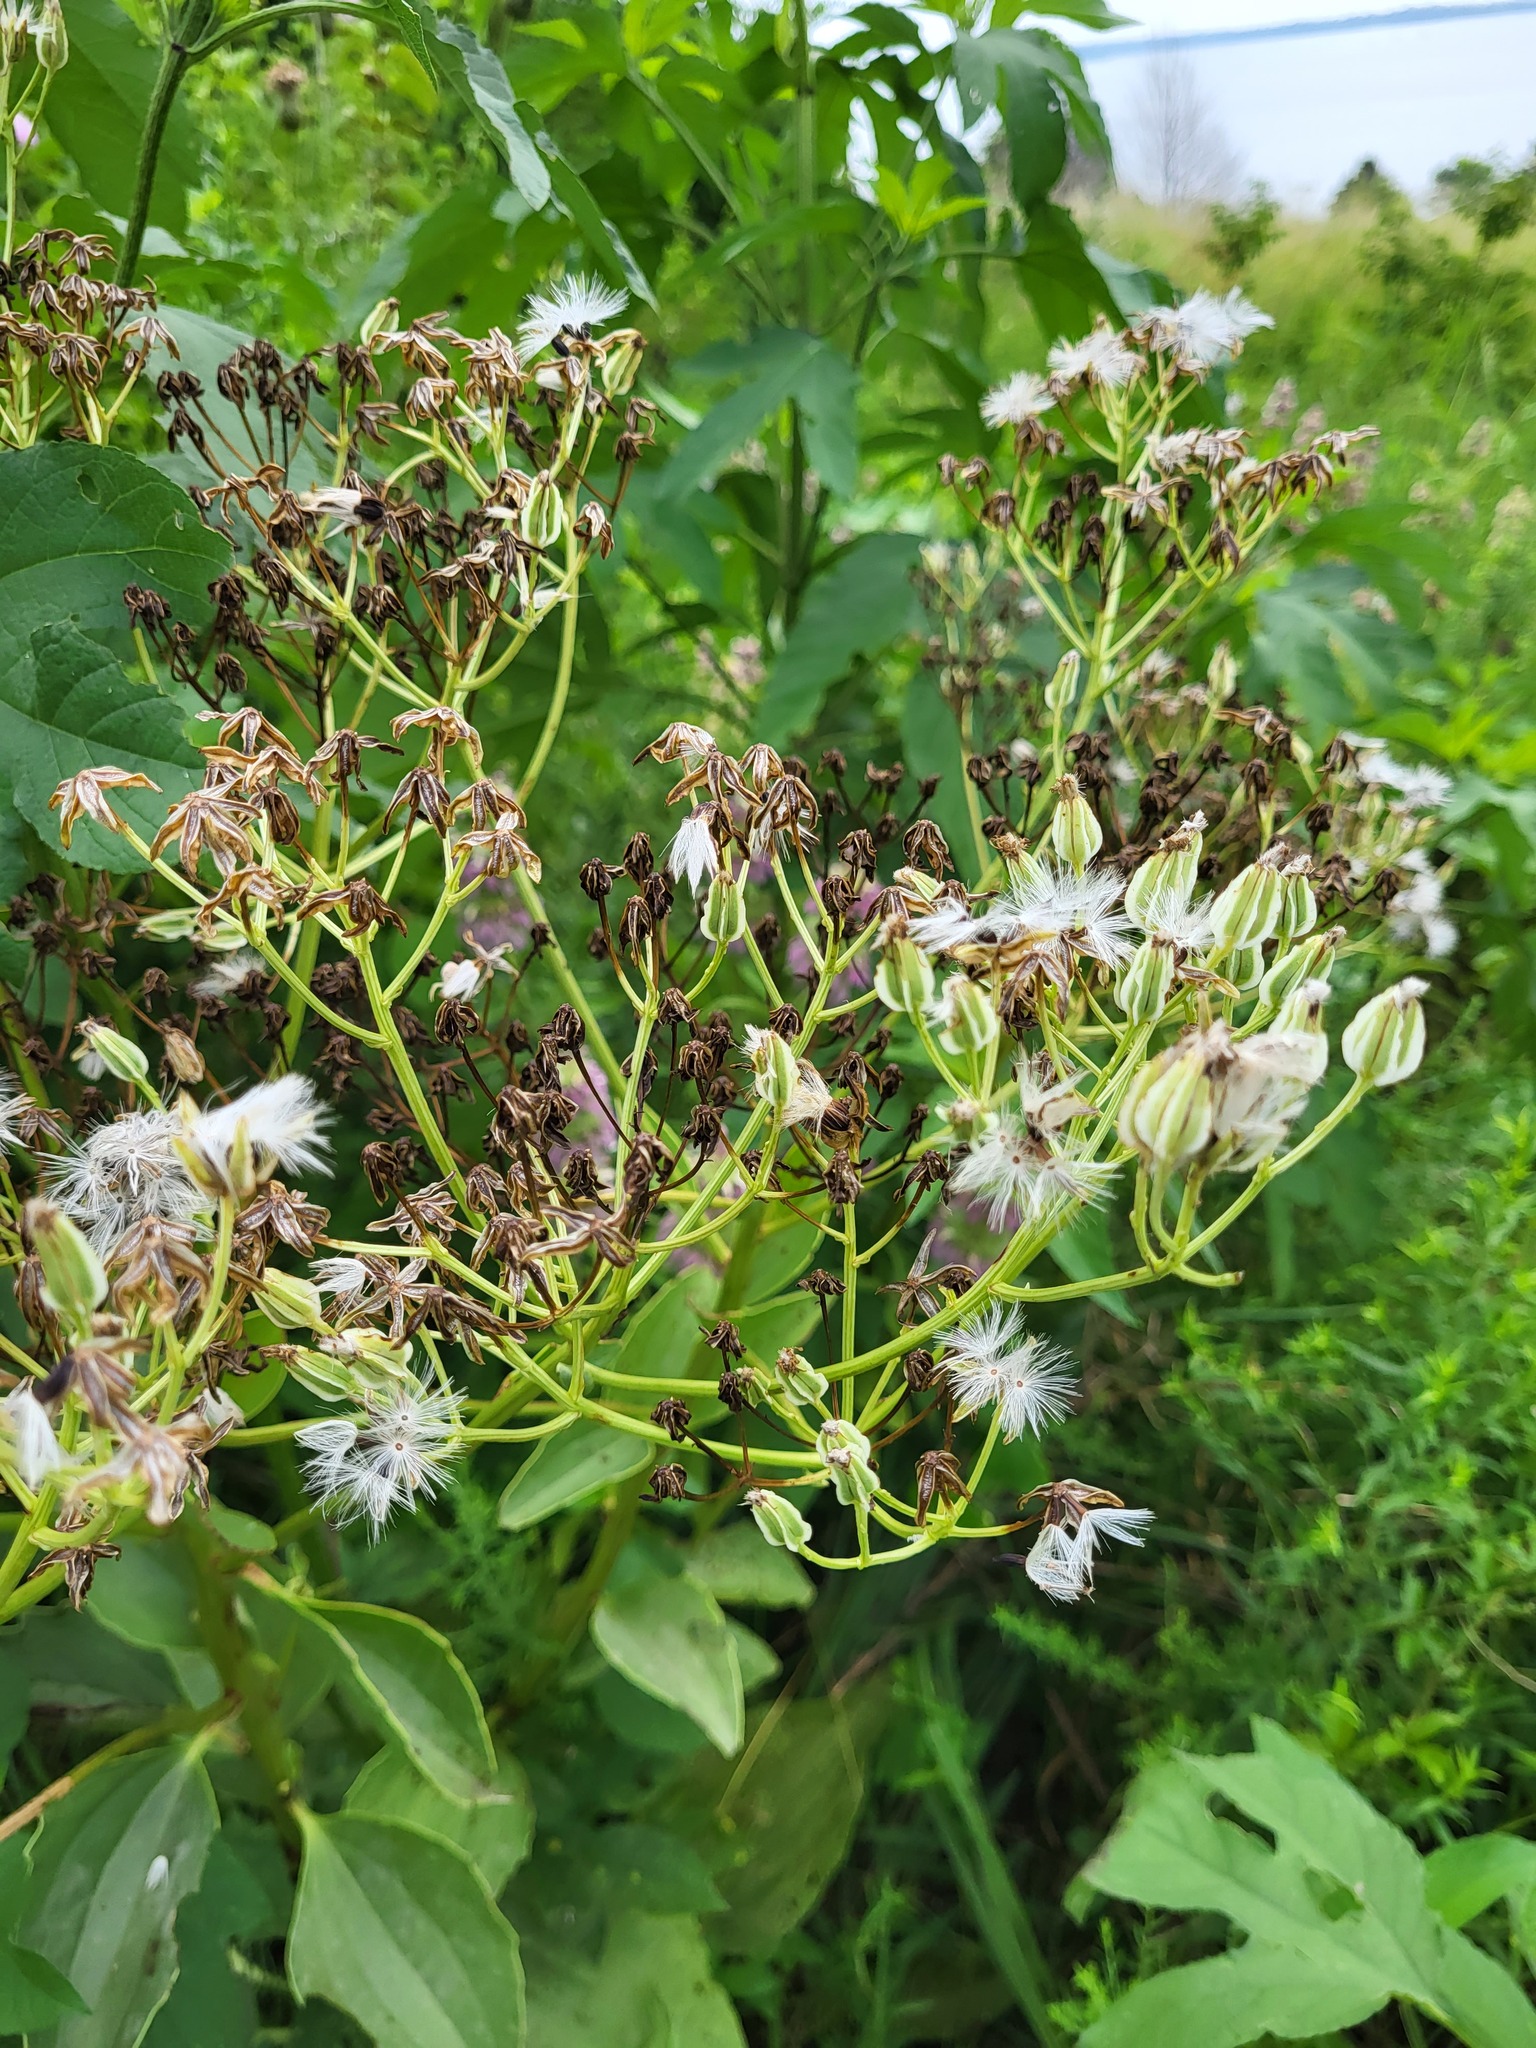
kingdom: Plantae
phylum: Tracheophyta
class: Magnoliopsida
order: Asterales
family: Asteraceae
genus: Arnoglossum
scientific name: Arnoglossum plantagineum
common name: Groove-stemmed indian-plantain
